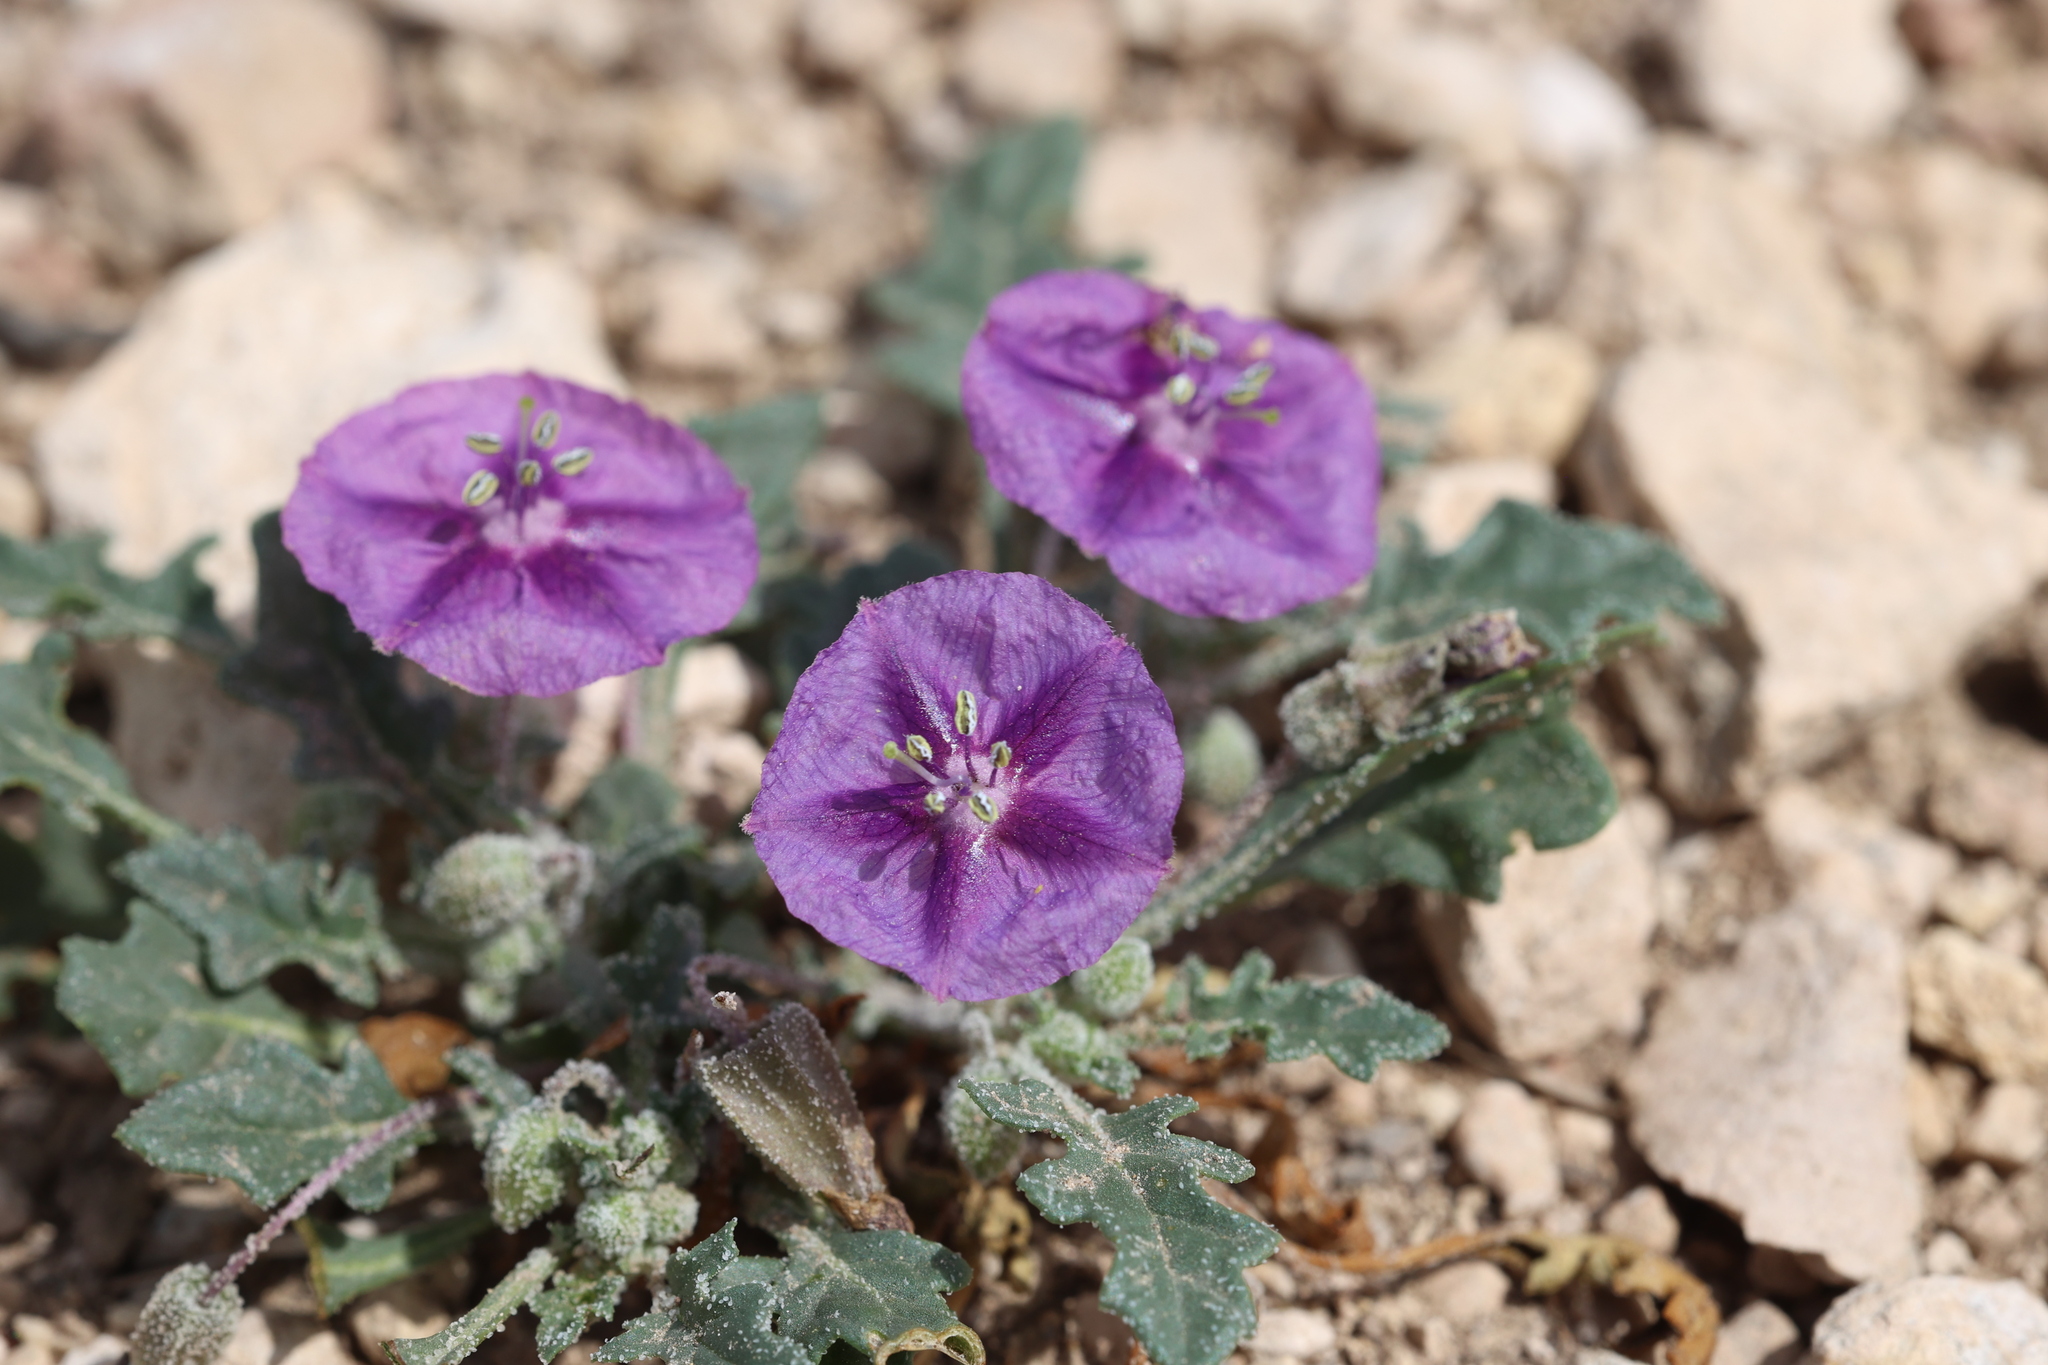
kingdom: Plantae
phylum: Tracheophyta
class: Magnoliopsida
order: Solanales
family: Solanaceae
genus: Quincula
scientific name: Quincula lobata
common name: Purple-ground-cherry
